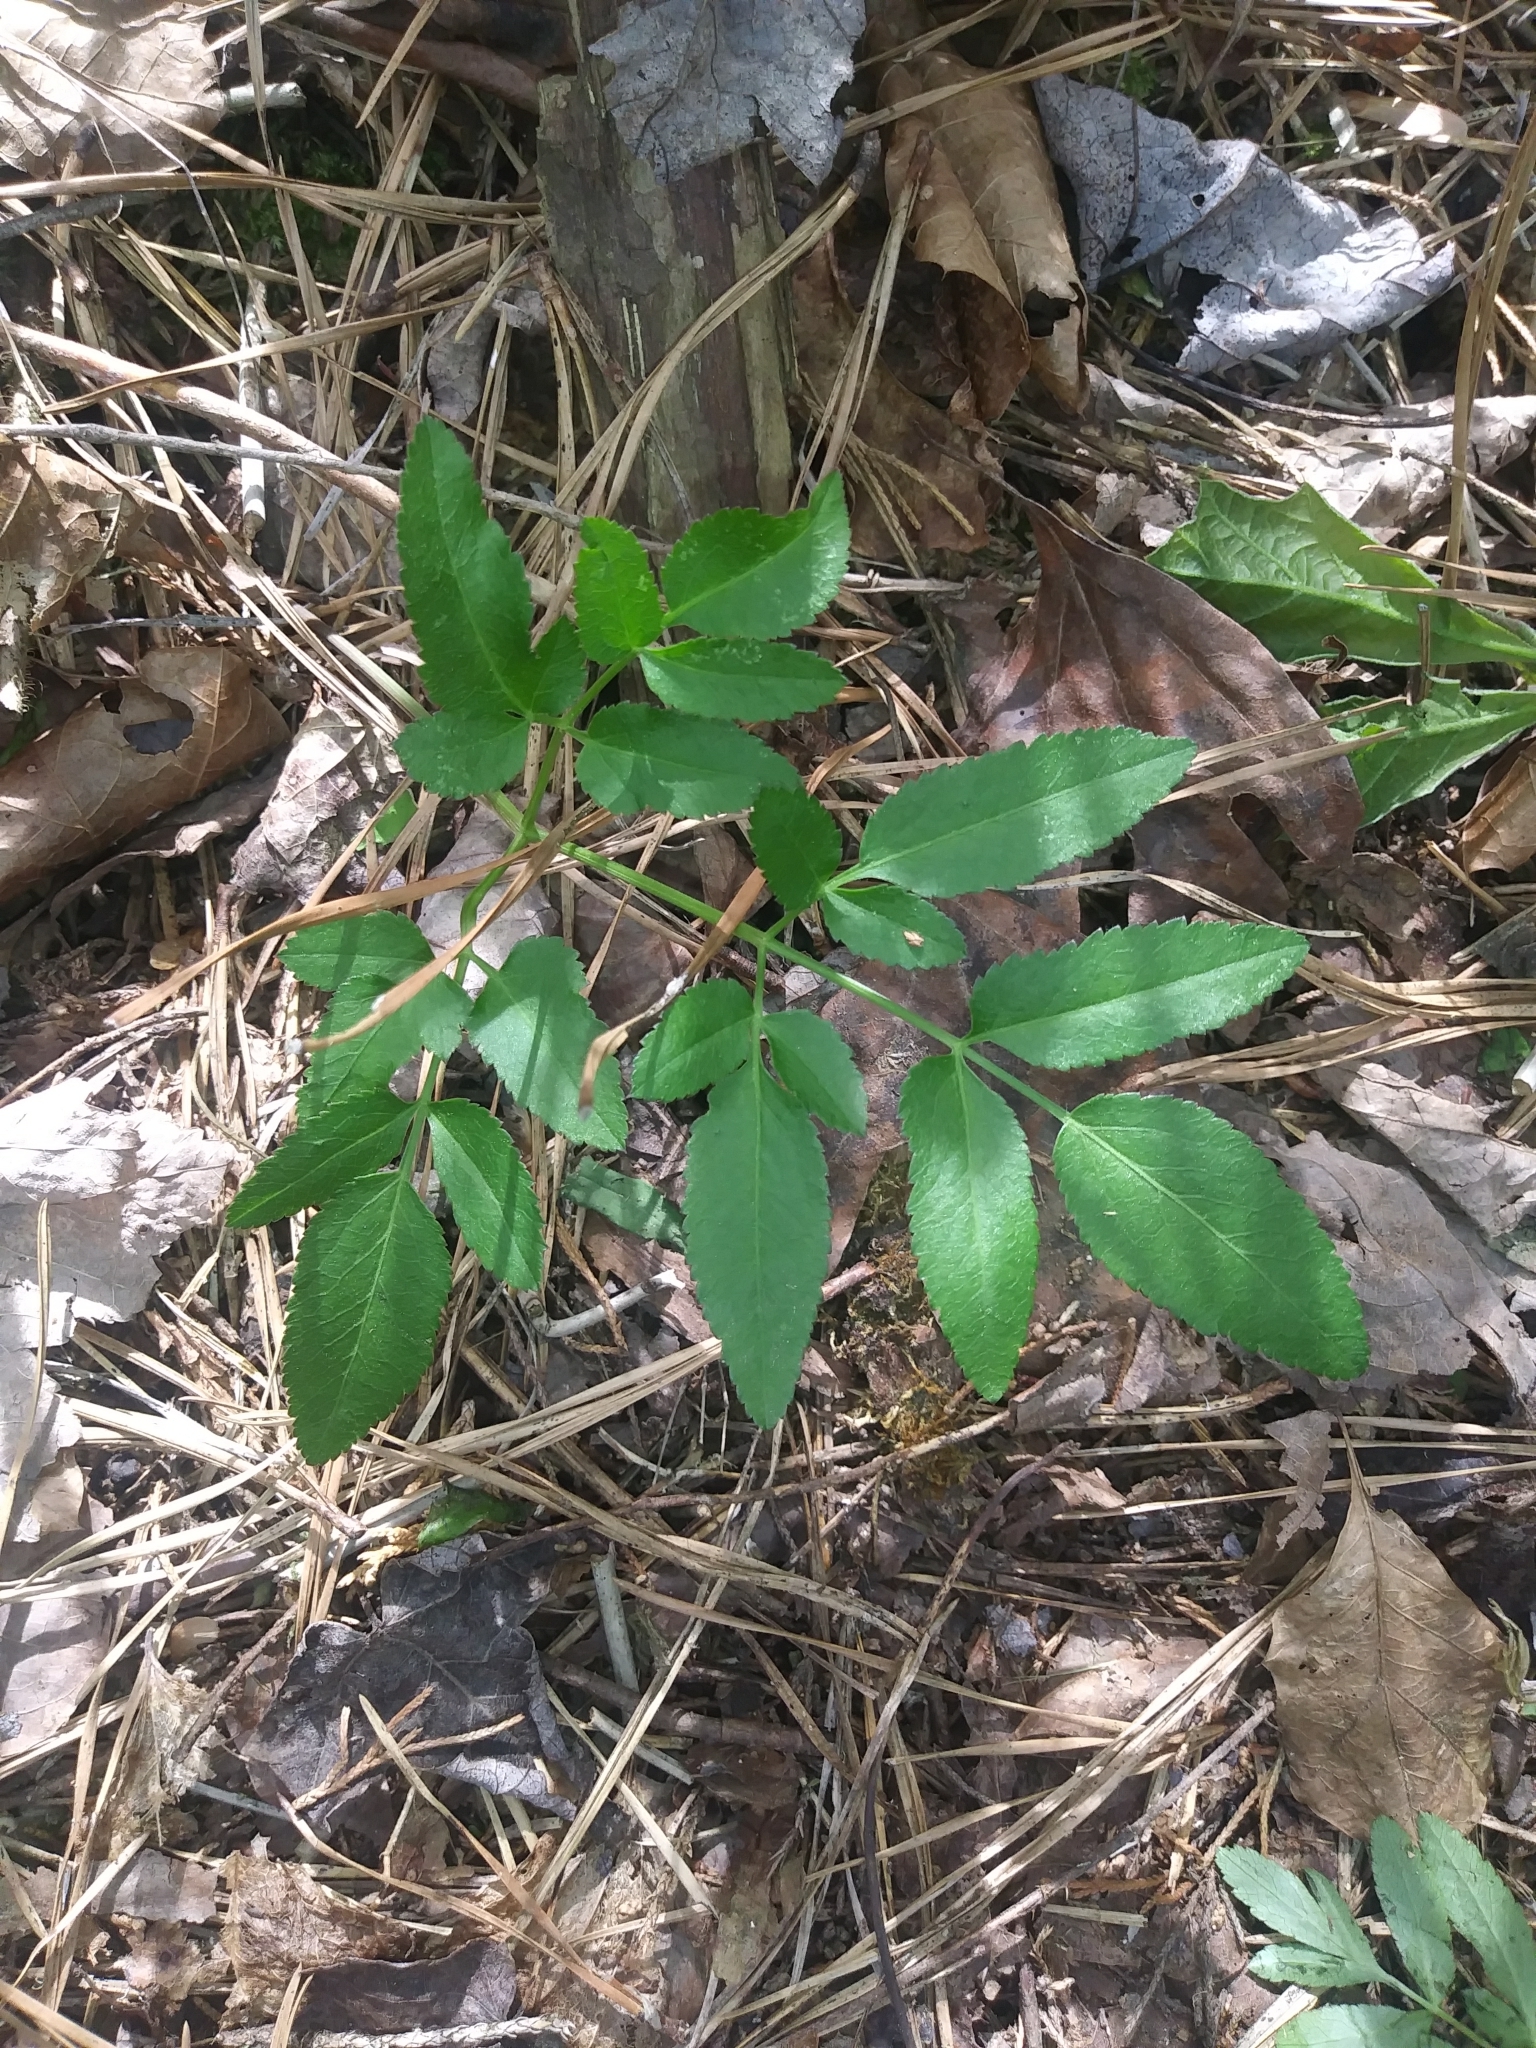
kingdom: Plantae
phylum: Tracheophyta
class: Magnoliopsida
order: Apiales
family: Apiaceae
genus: Zizia
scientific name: Zizia aurea
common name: Golden alexanders
